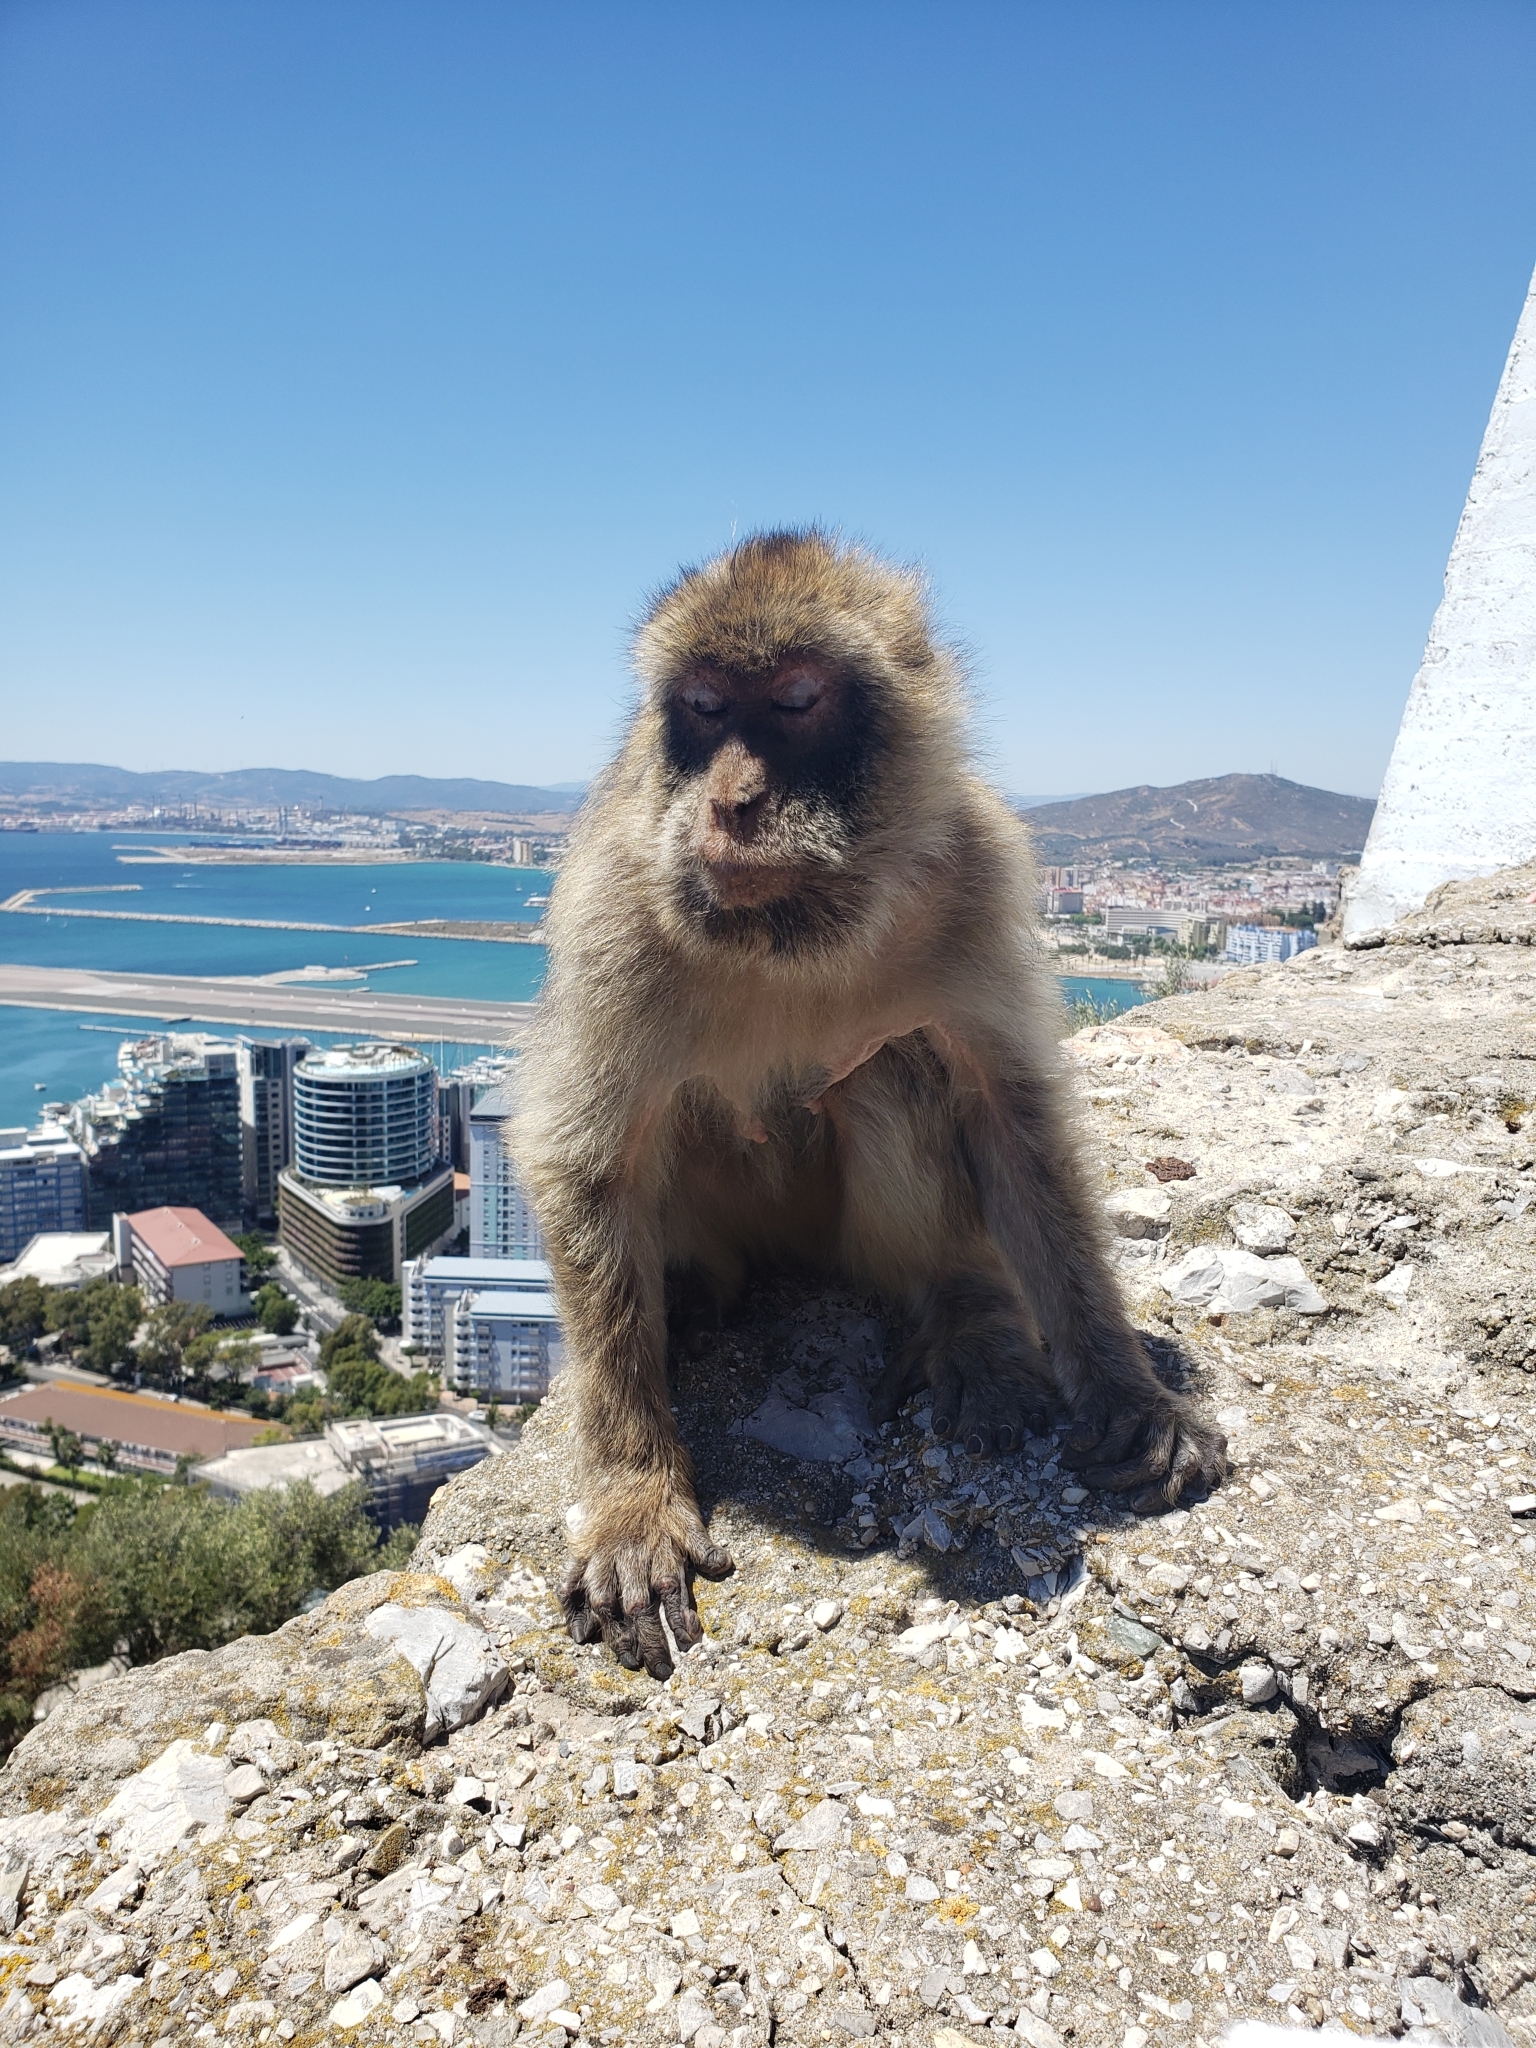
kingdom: Animalia
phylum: Chordata
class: Mammalia
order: Primates
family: Cercopithecidae
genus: Macaca
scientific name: Macaca sylvanus
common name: Barbary macaque
